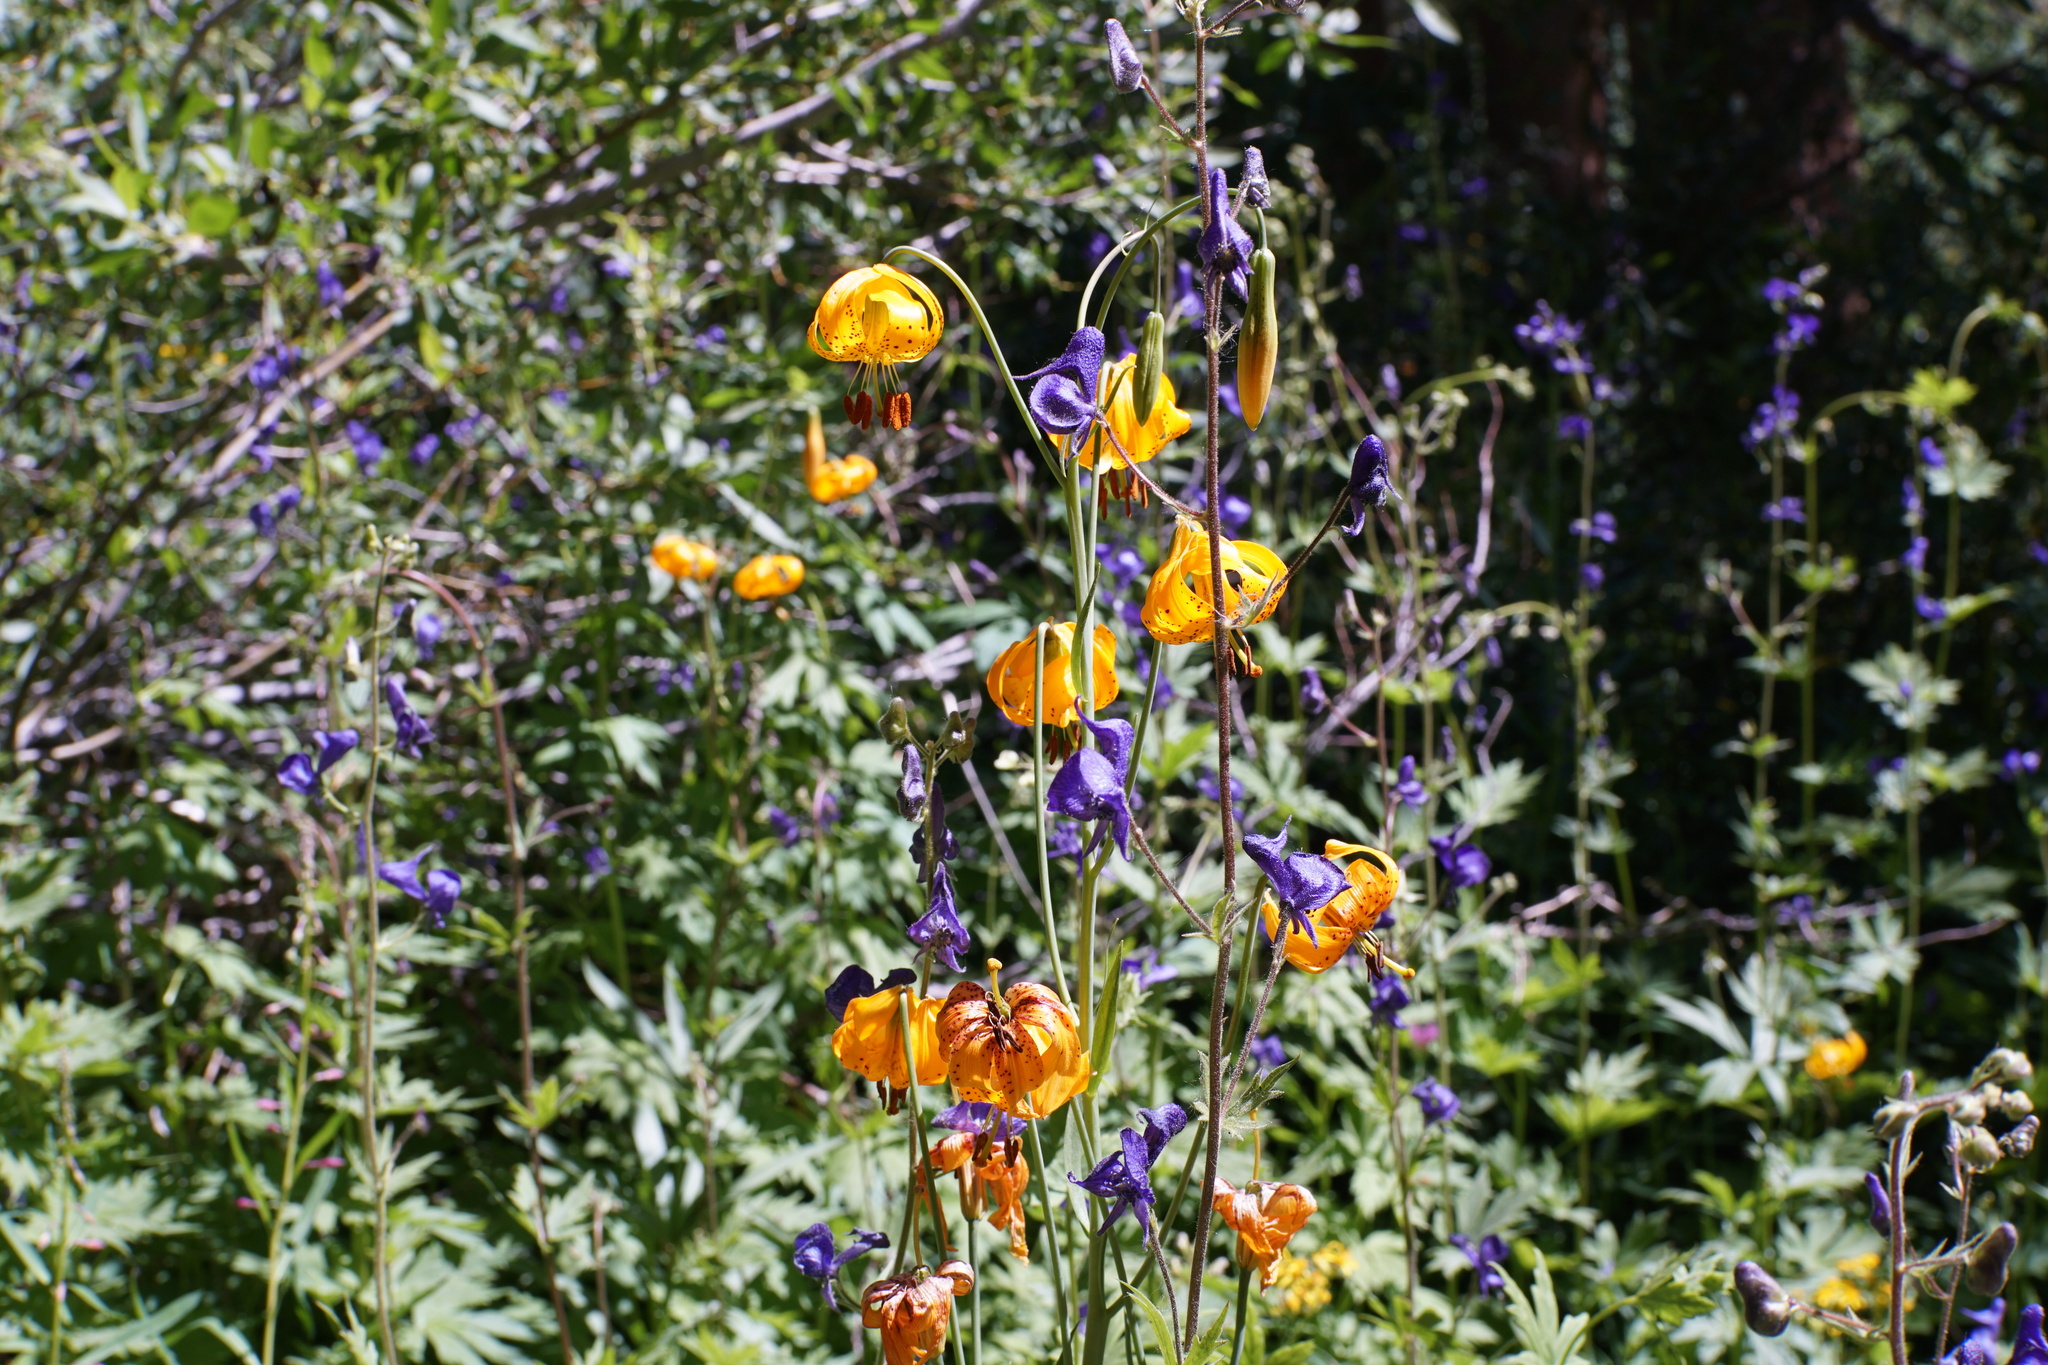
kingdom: Plantae
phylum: Tracheophyta
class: Liliopsida
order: Liliales
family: Liliaceae
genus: Lilium
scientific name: Lilium kelleyanum
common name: Kelley's lily
